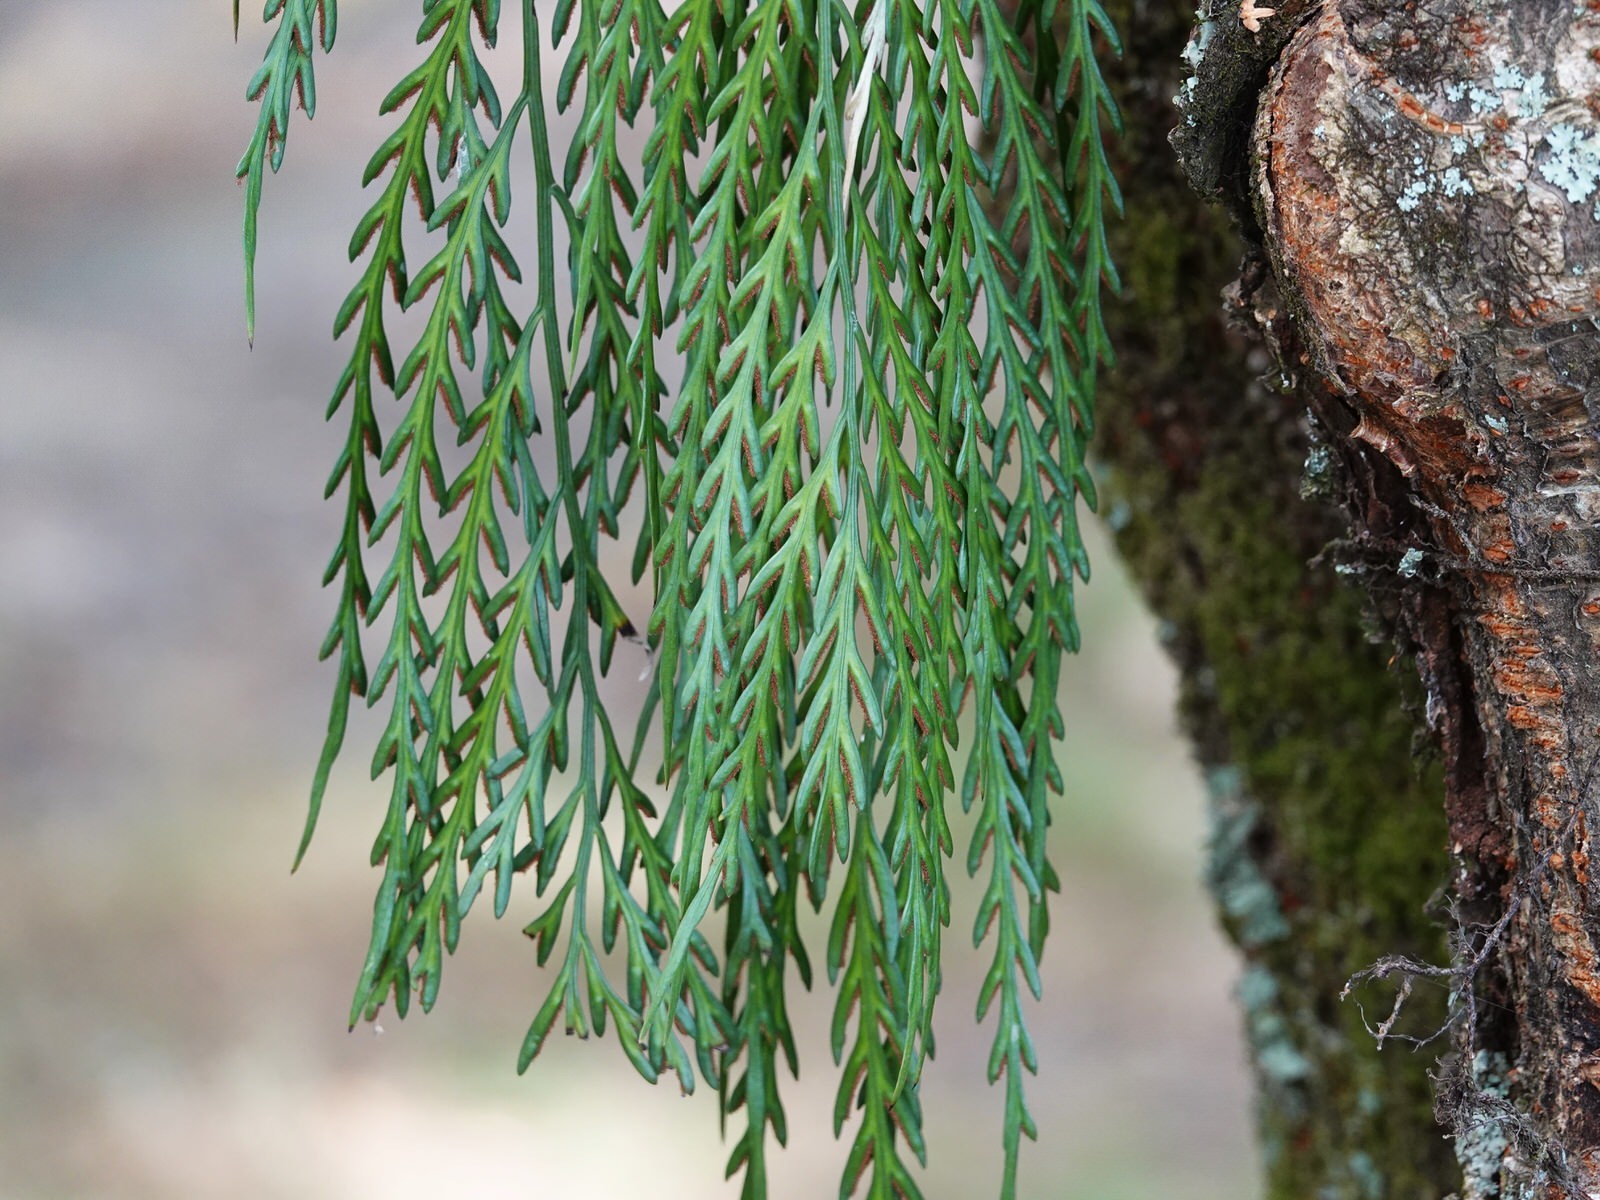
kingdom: Plantae
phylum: Tracheophyta
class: Polypodiopsida
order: Polypodiales
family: Aspleniaceae
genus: Asplenium
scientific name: Asplenium flaccidum
